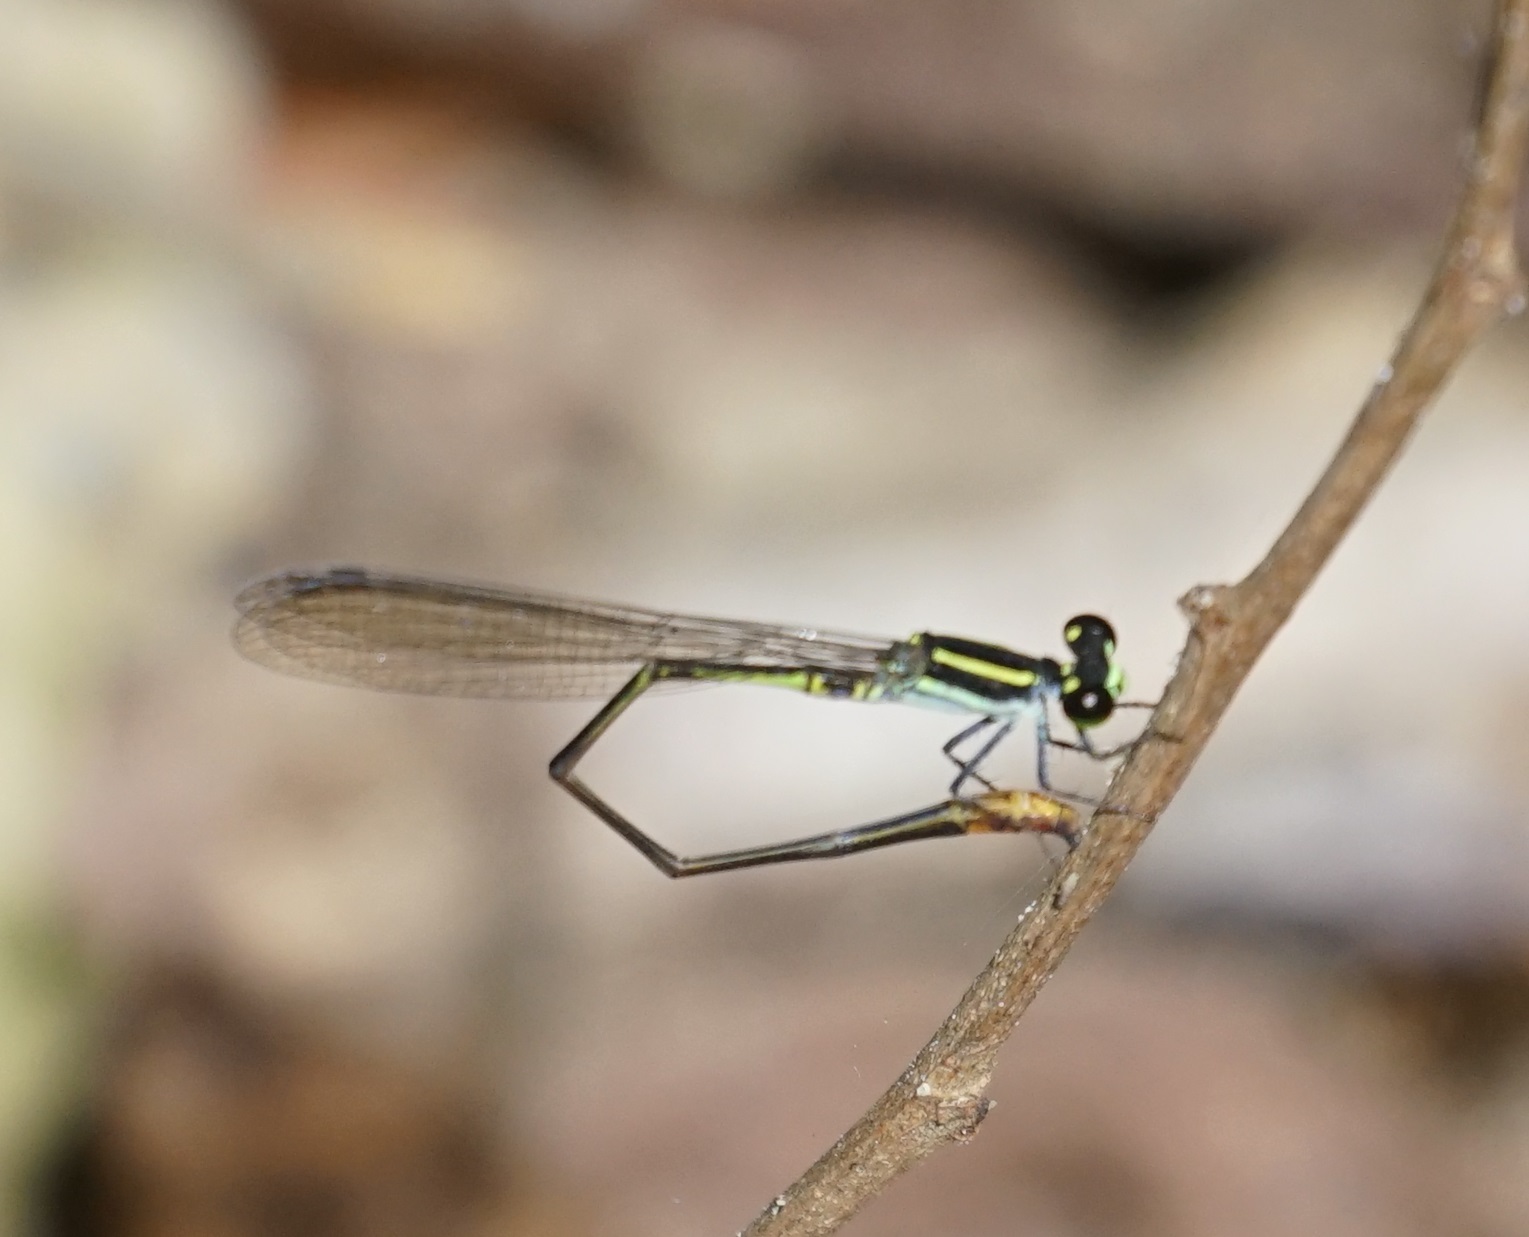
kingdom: Animalia
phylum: Arthropoda
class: Insecta
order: Odonata
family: Coenagrionidae
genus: Argiocnemis
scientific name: Argiocnemis rubescens
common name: Red-tipped shadefly
